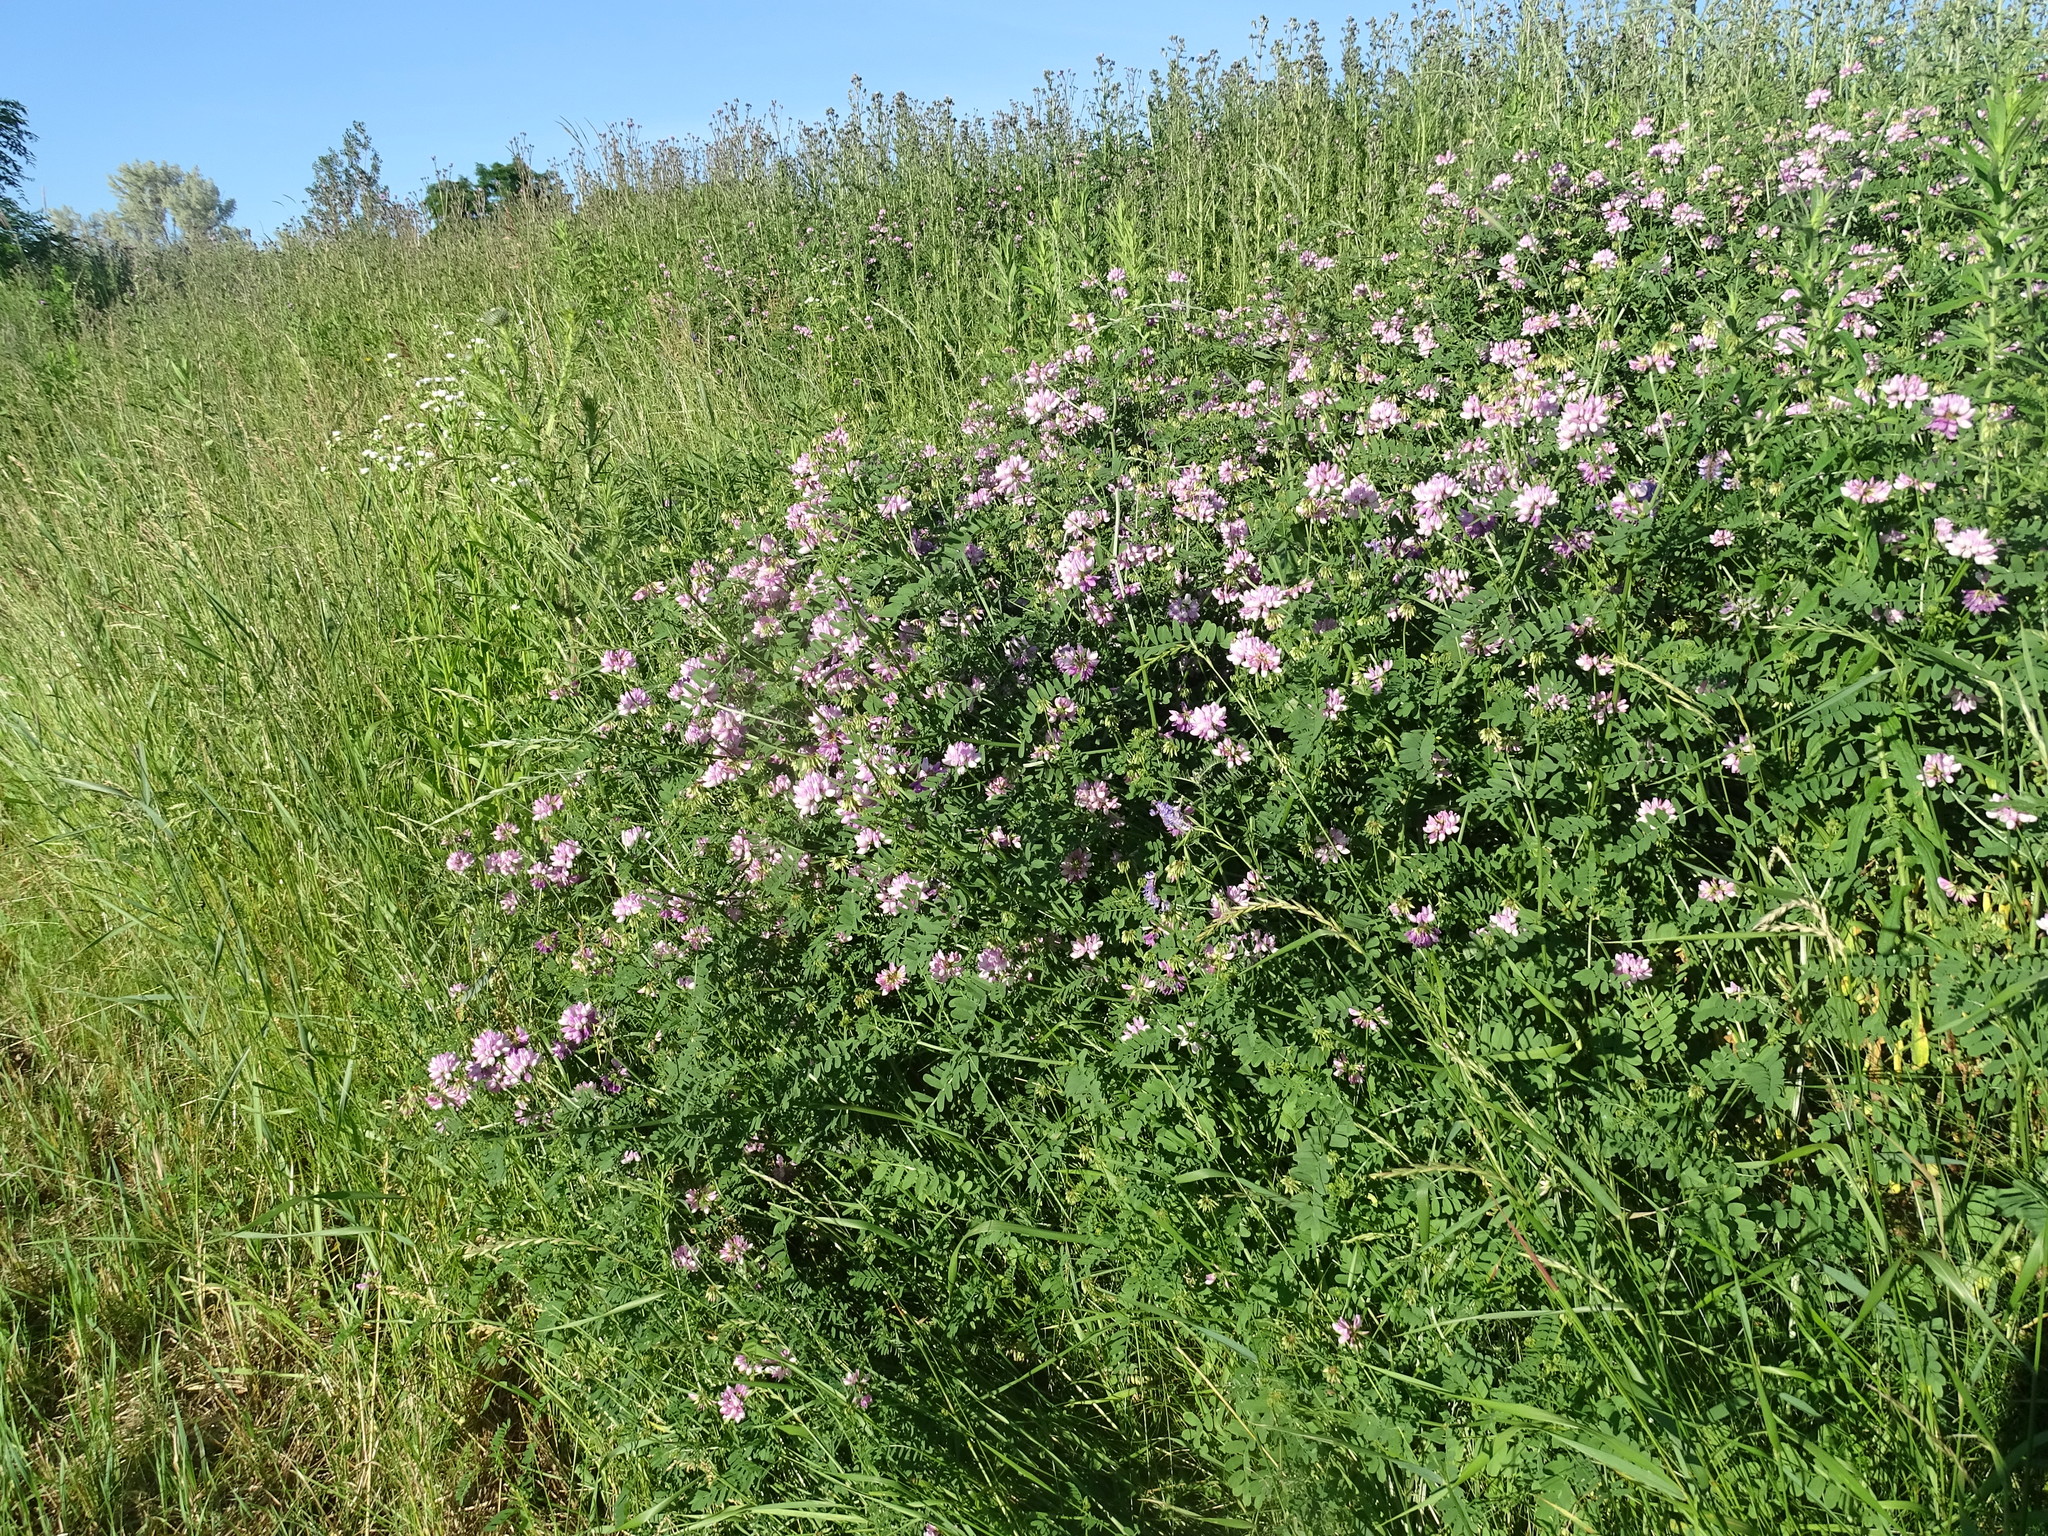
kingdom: Plantae
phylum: Tracheophyta
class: Magnoliopsida
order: Fabales
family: Fabaceae
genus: Coronilla
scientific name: Coronilla varia
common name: Crownvetch
